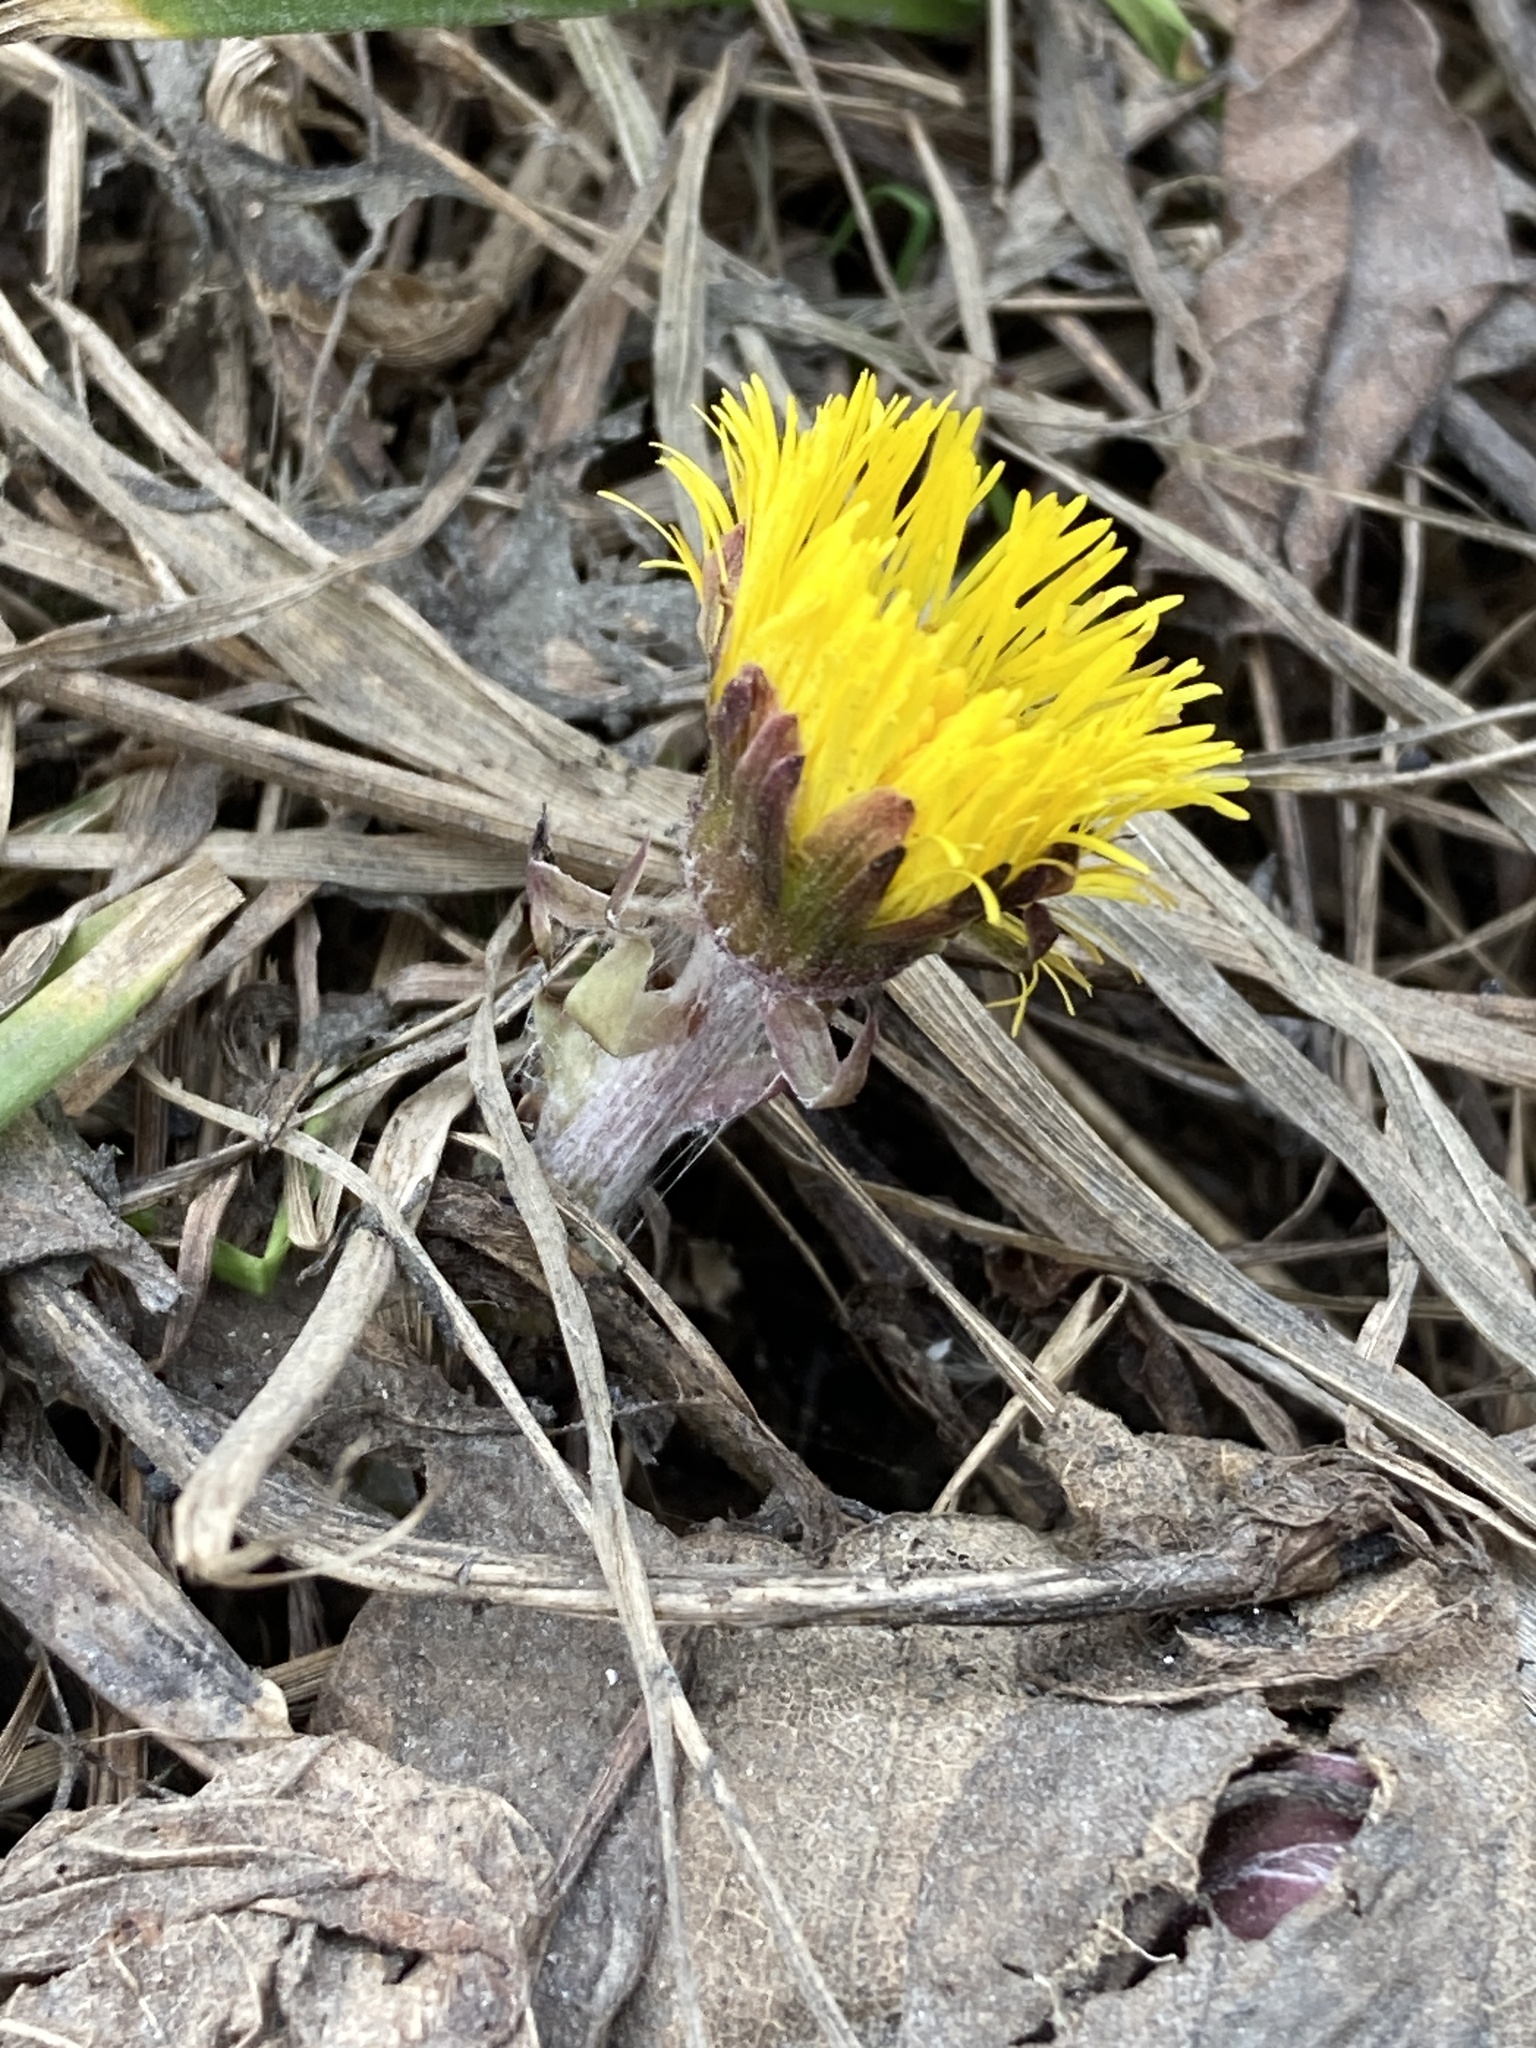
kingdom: Plantae
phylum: Tracheophyta
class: Magnoliopsida
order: Asterales
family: Asteraceae
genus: Tussilago
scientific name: Tussilago farfara
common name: Coltsfoot
